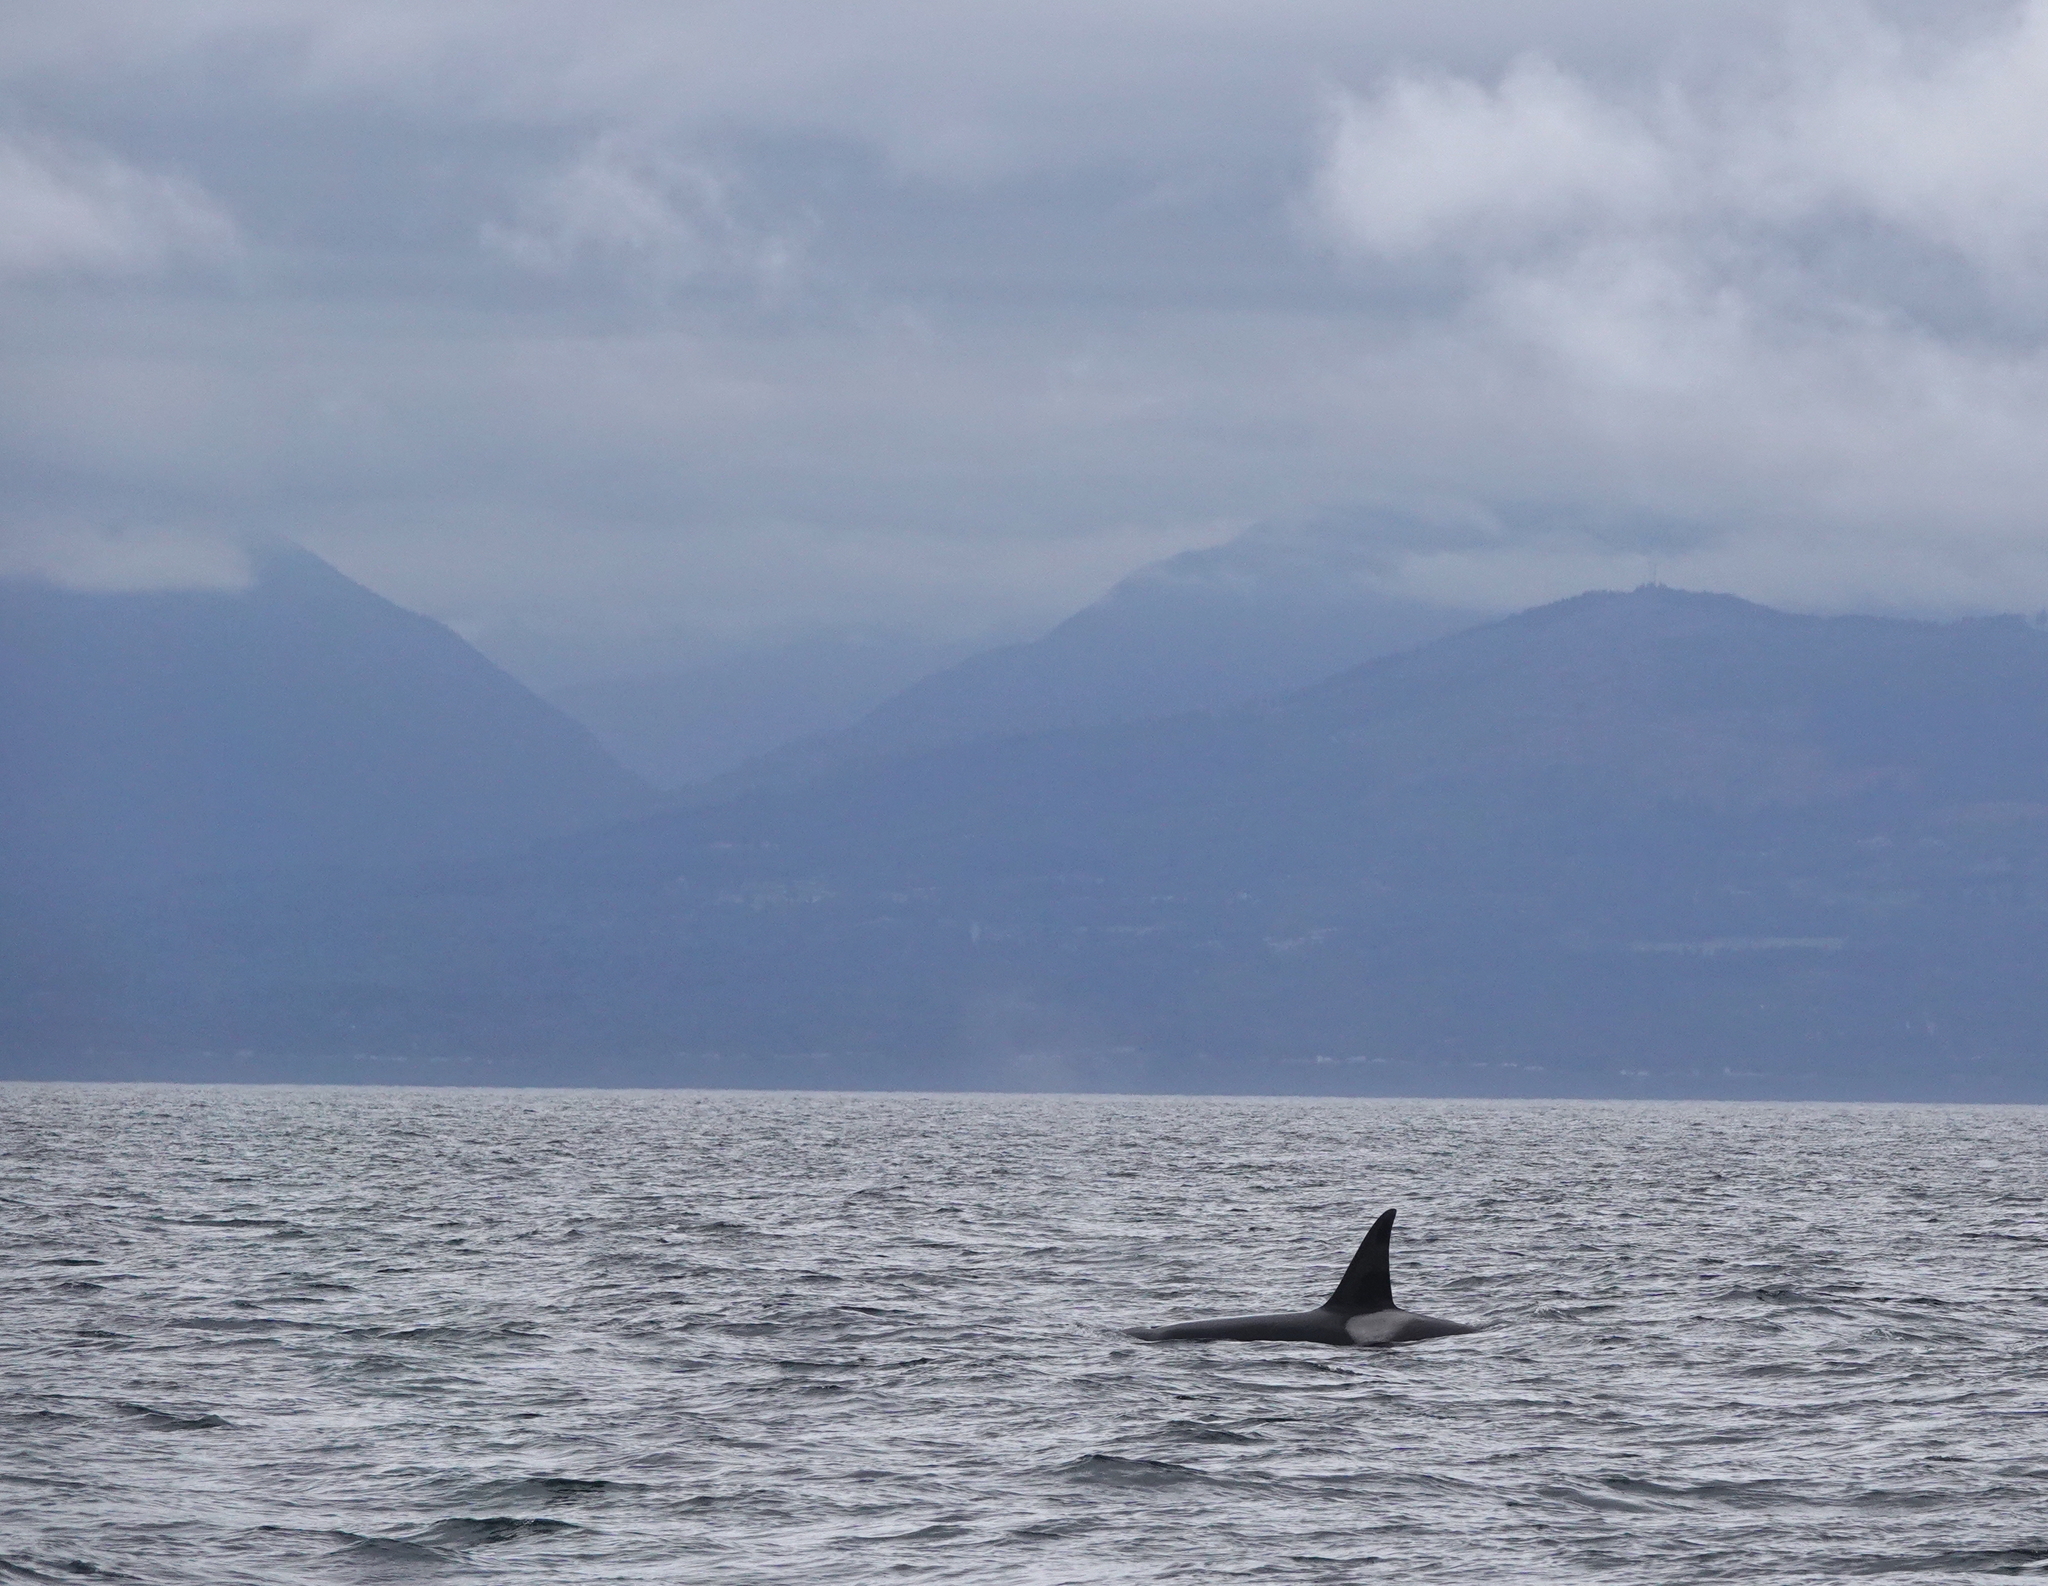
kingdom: Animalia
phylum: Chordata
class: Mammalia
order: Cetacea
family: Delphinidae
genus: Orcinus
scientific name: Orcinus orca
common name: Killer whale
